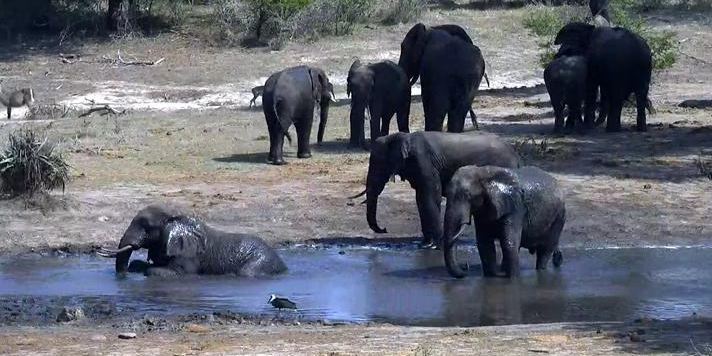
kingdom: Animalia
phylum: Chordata
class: Mammalia
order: Proboscidea
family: Elephantidae
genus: Loxodonta
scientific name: Loxodonta africana
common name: African elephant
